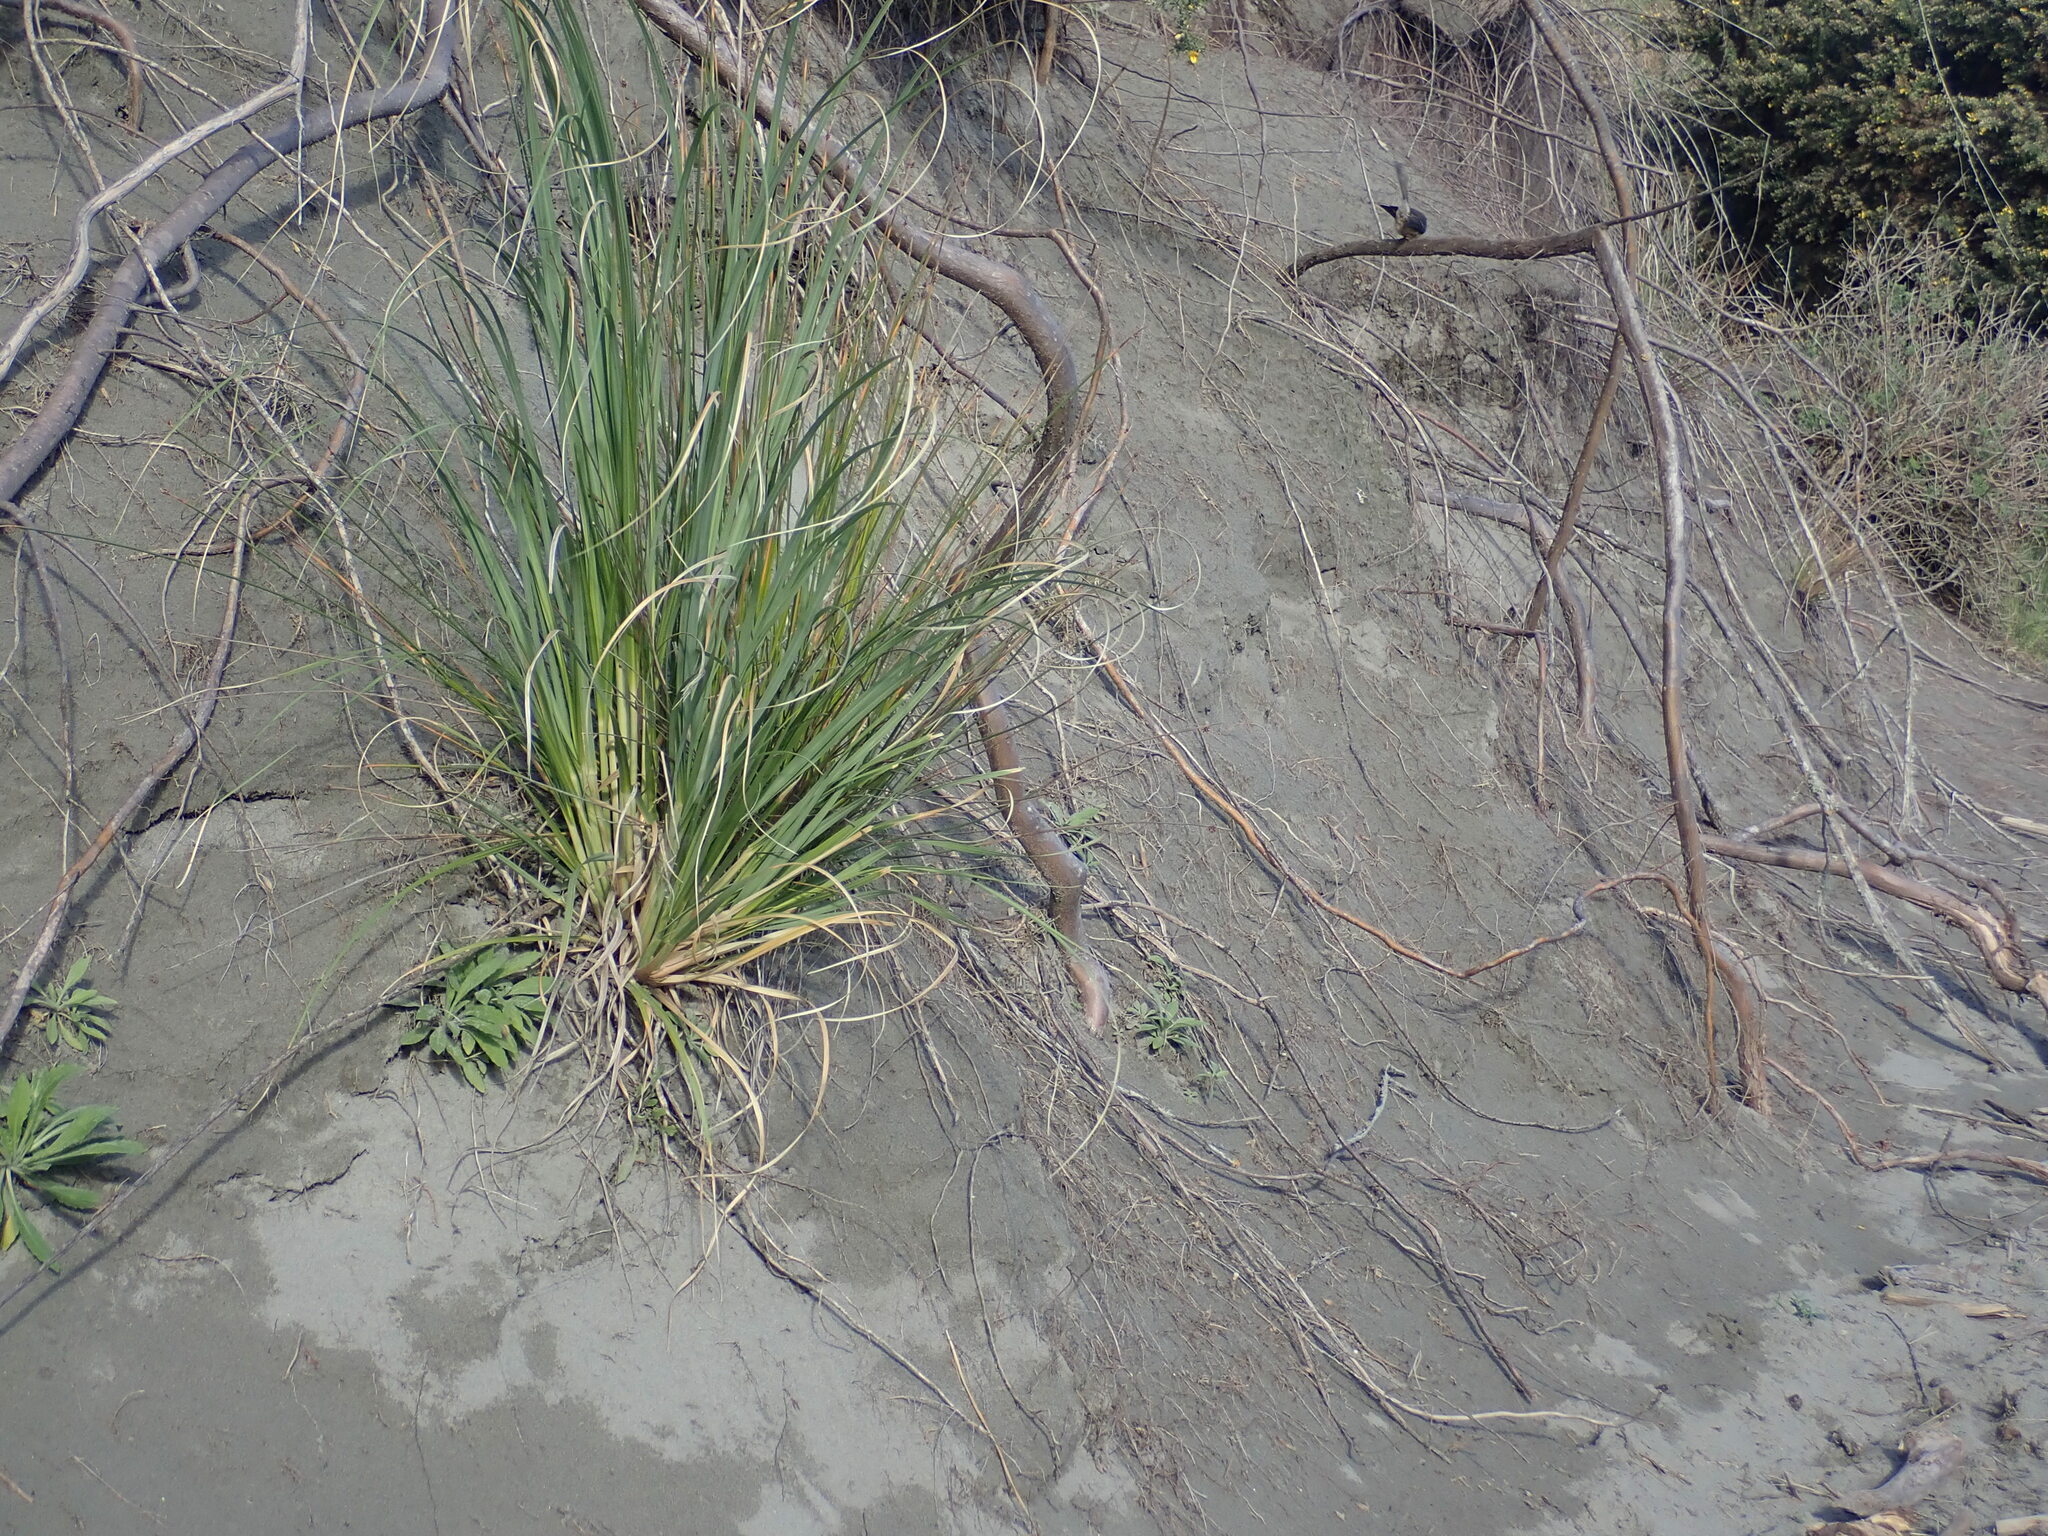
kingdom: Animalia
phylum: Chordata
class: Aves
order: Passeriformes
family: Rhipiduridae
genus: Rhipidura
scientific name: Rhipidura fuliginosa
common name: New zealand fantail
